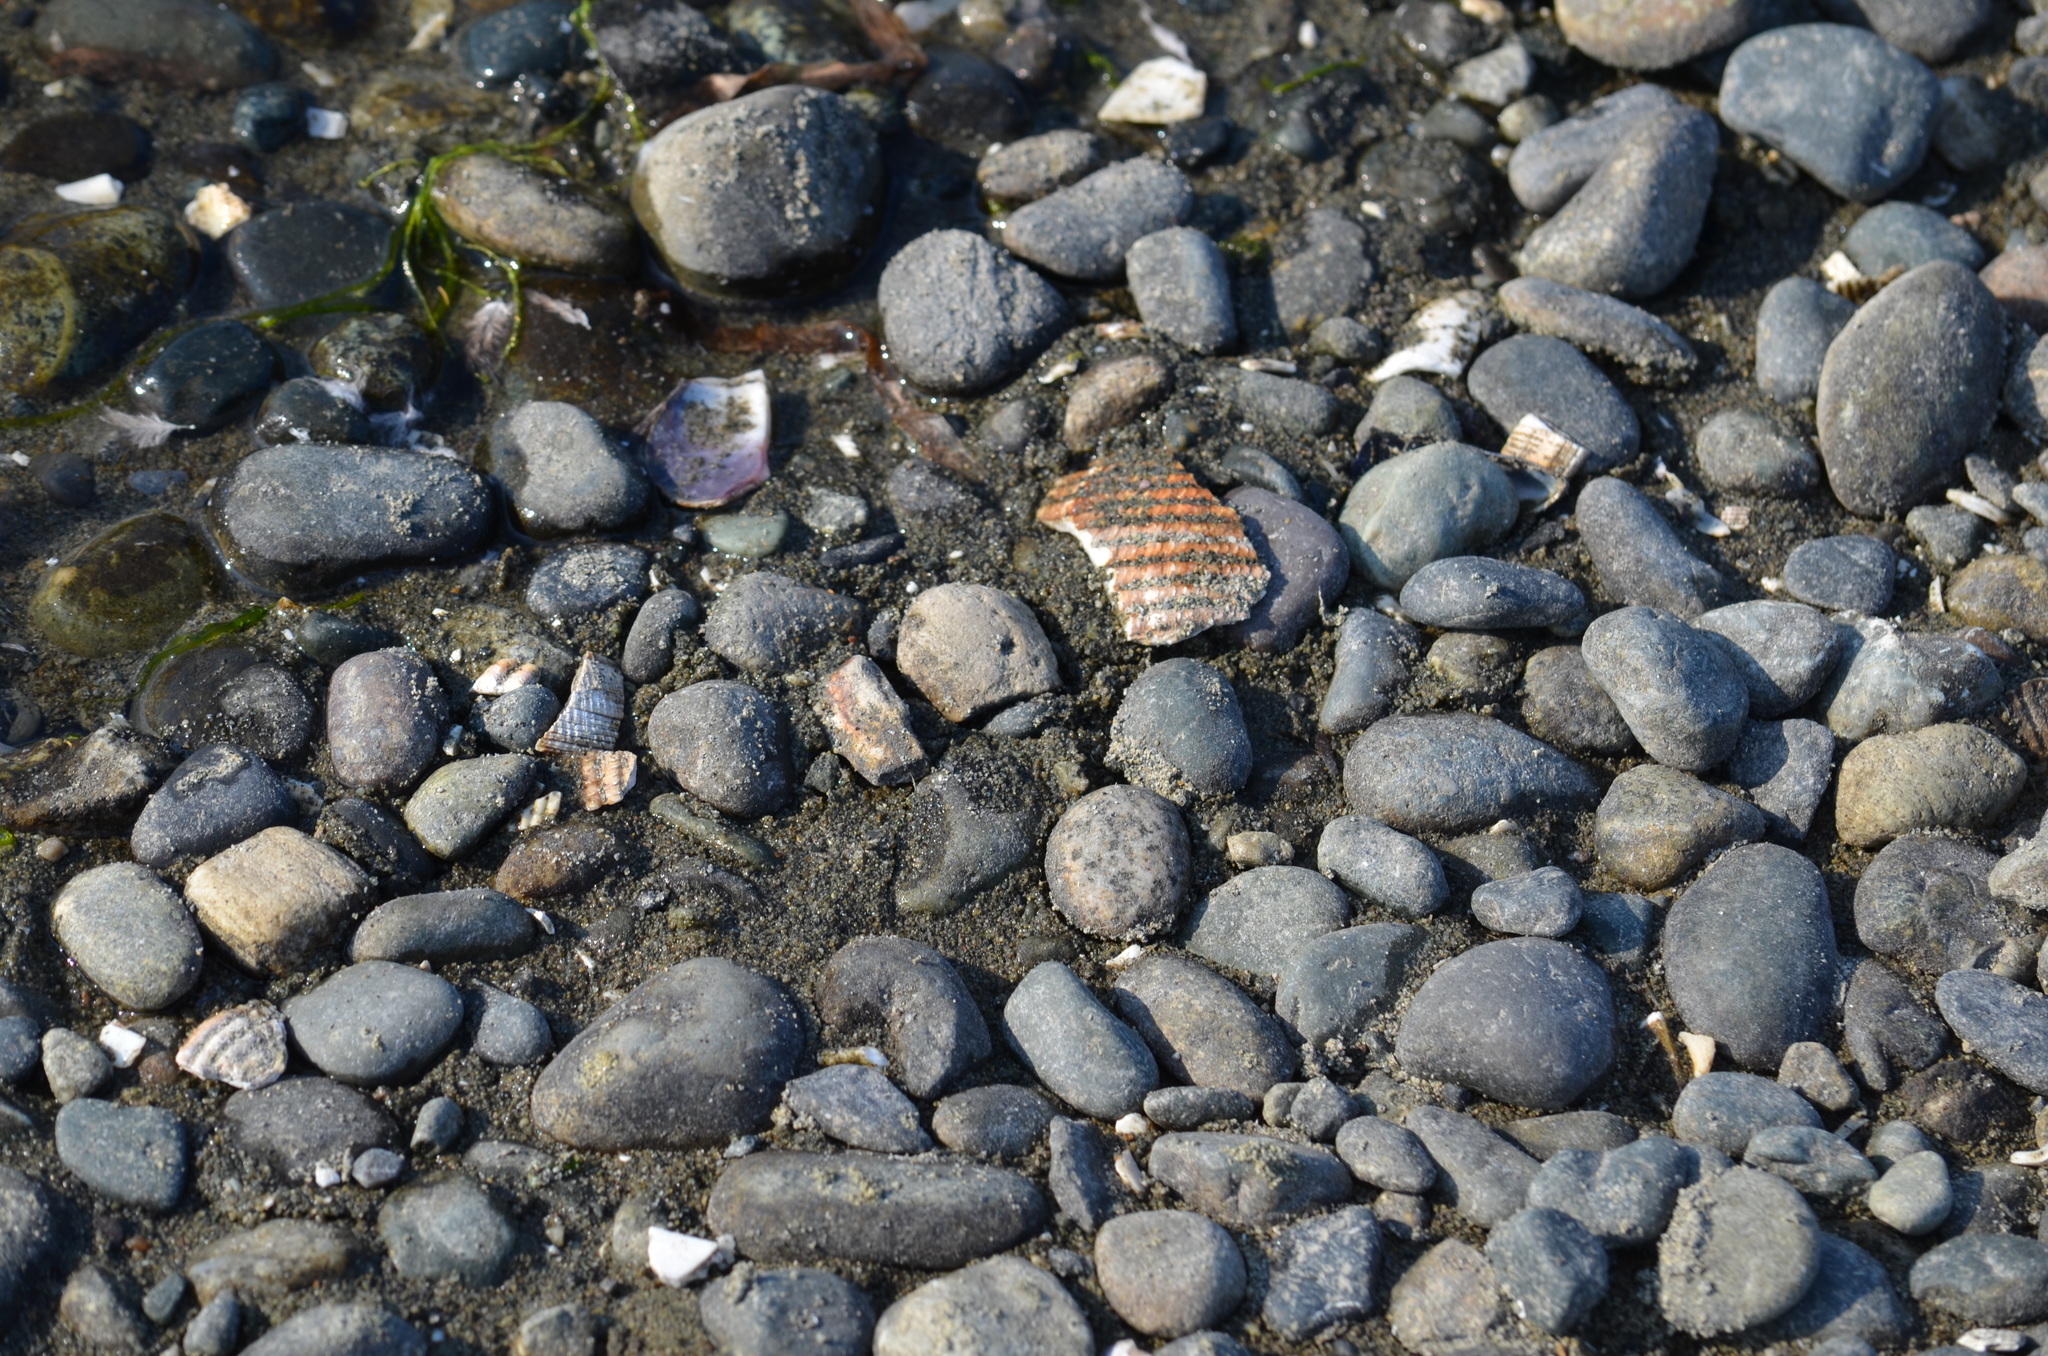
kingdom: Animalia
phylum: Mollusca
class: Bivalvia
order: Cardiida
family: Cardiidae
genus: Clinocardium
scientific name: Clinocardium nuttallii
